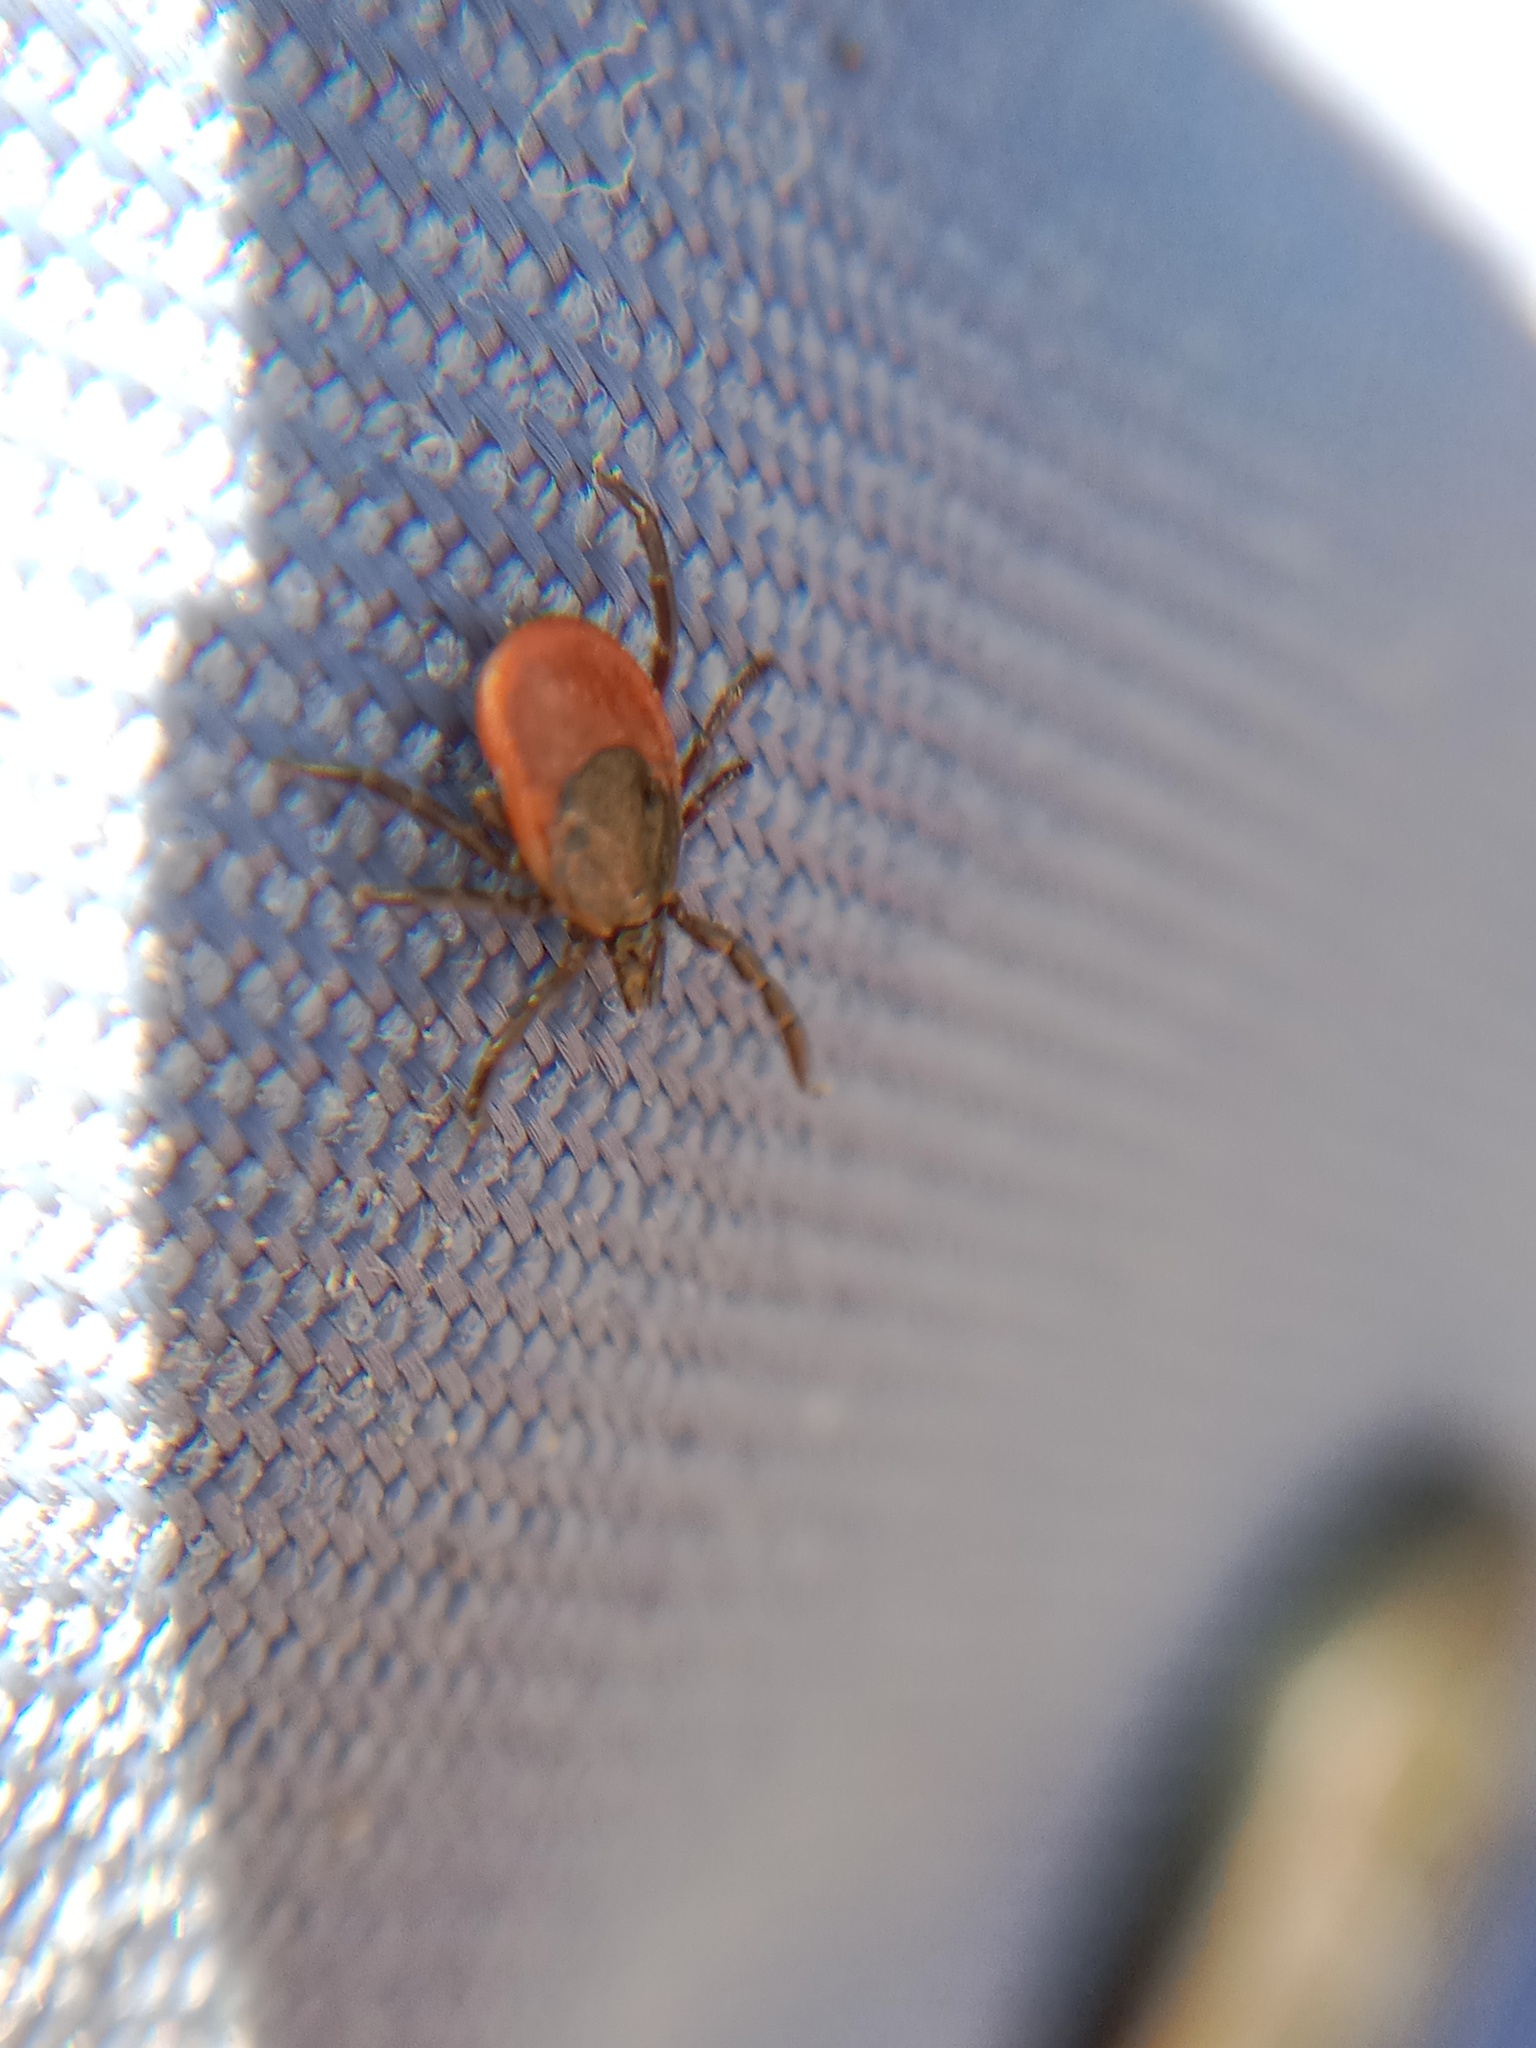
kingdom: Animalia
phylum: Arthropoda
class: Arachnida
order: Ixodida
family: Ixodidae
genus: Ixodes
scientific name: Ixodes ricinus
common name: Castor bean tick
